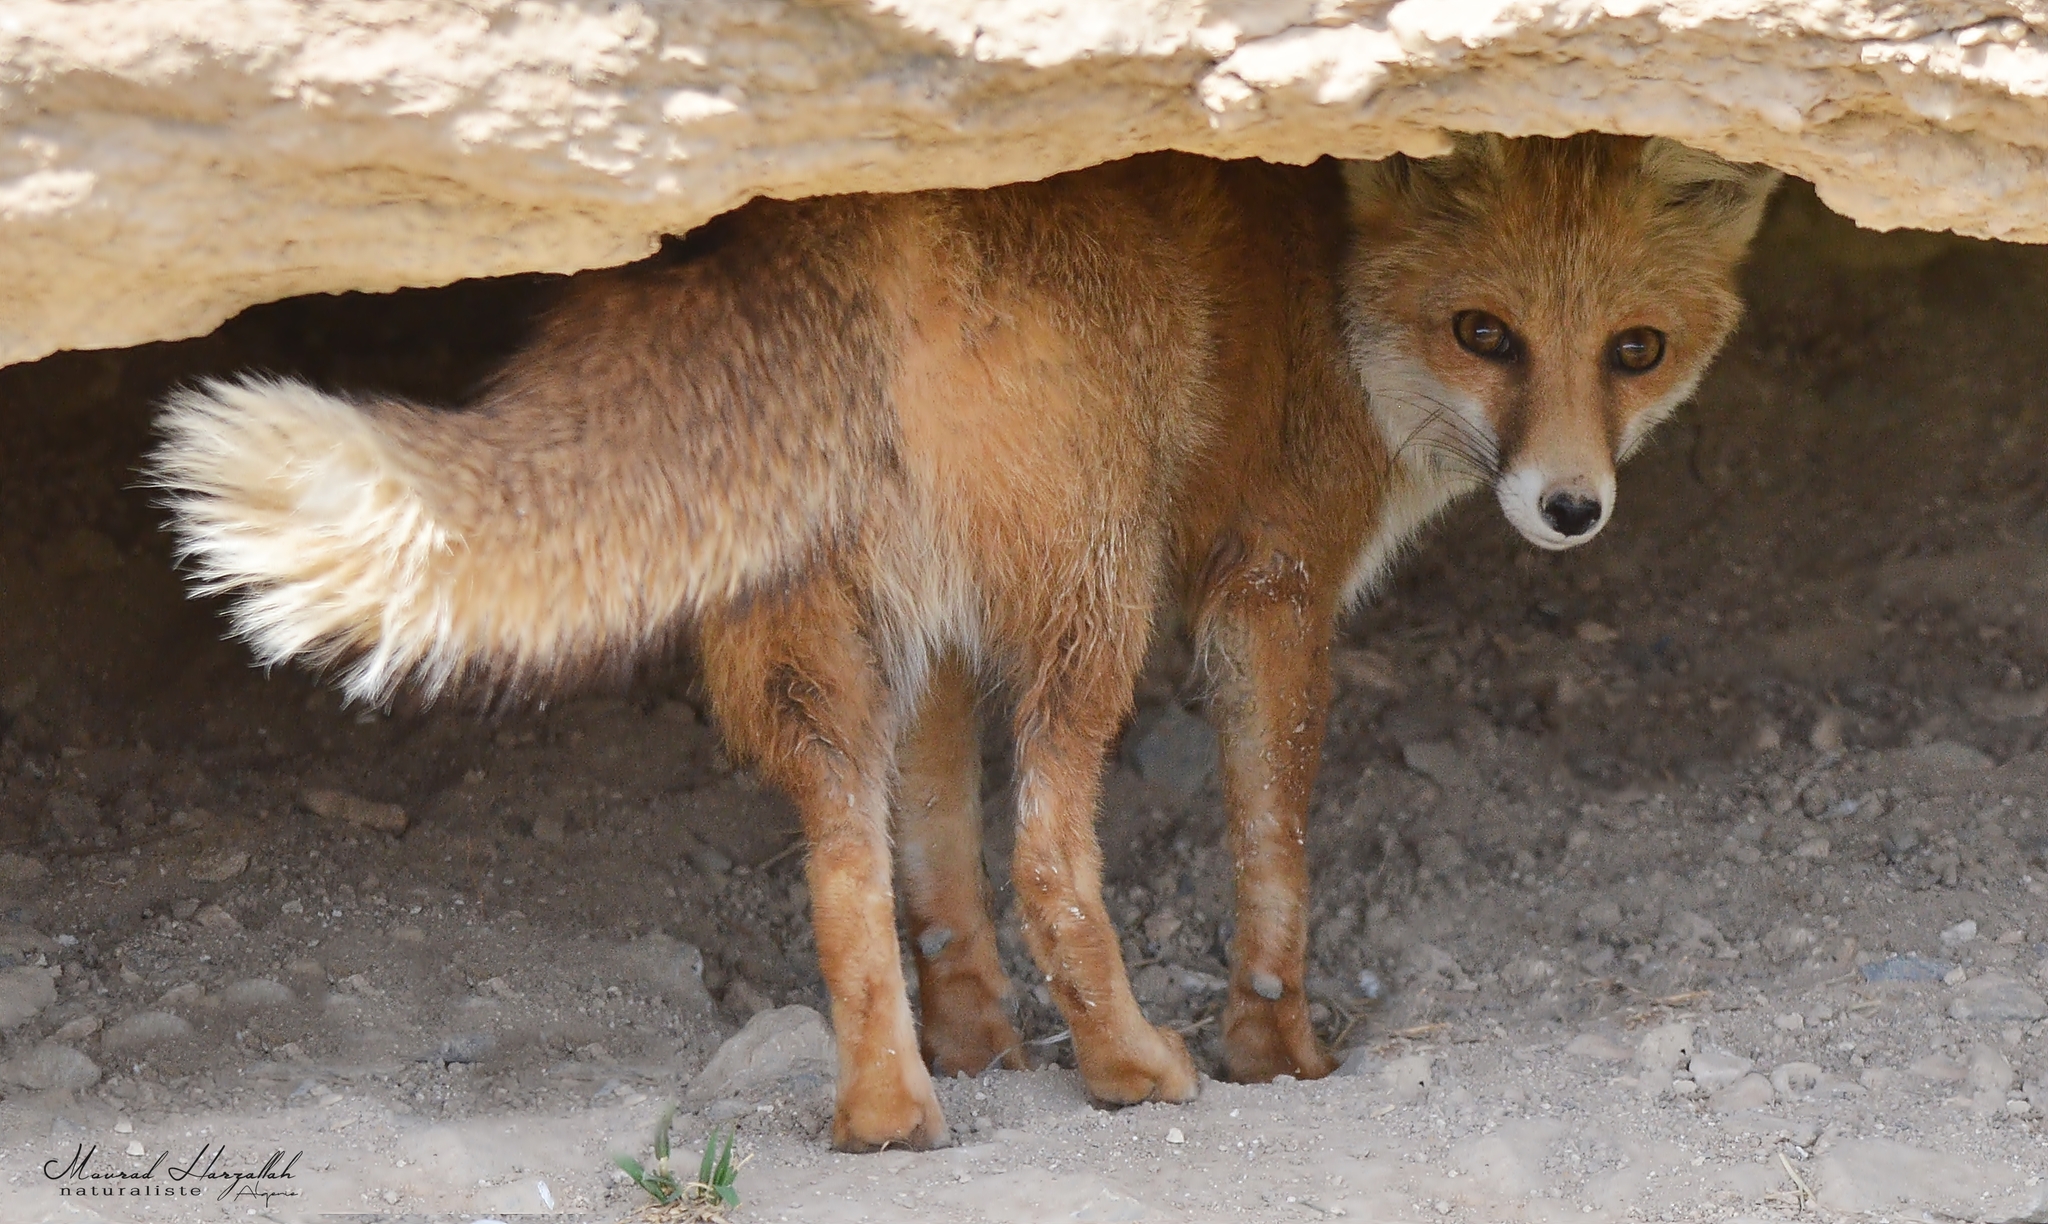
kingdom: Animalia
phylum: Chordata
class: Mammalia
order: Carnivora
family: Canidae
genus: Vulpes
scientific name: Vulpes vulpes
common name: Red fox
